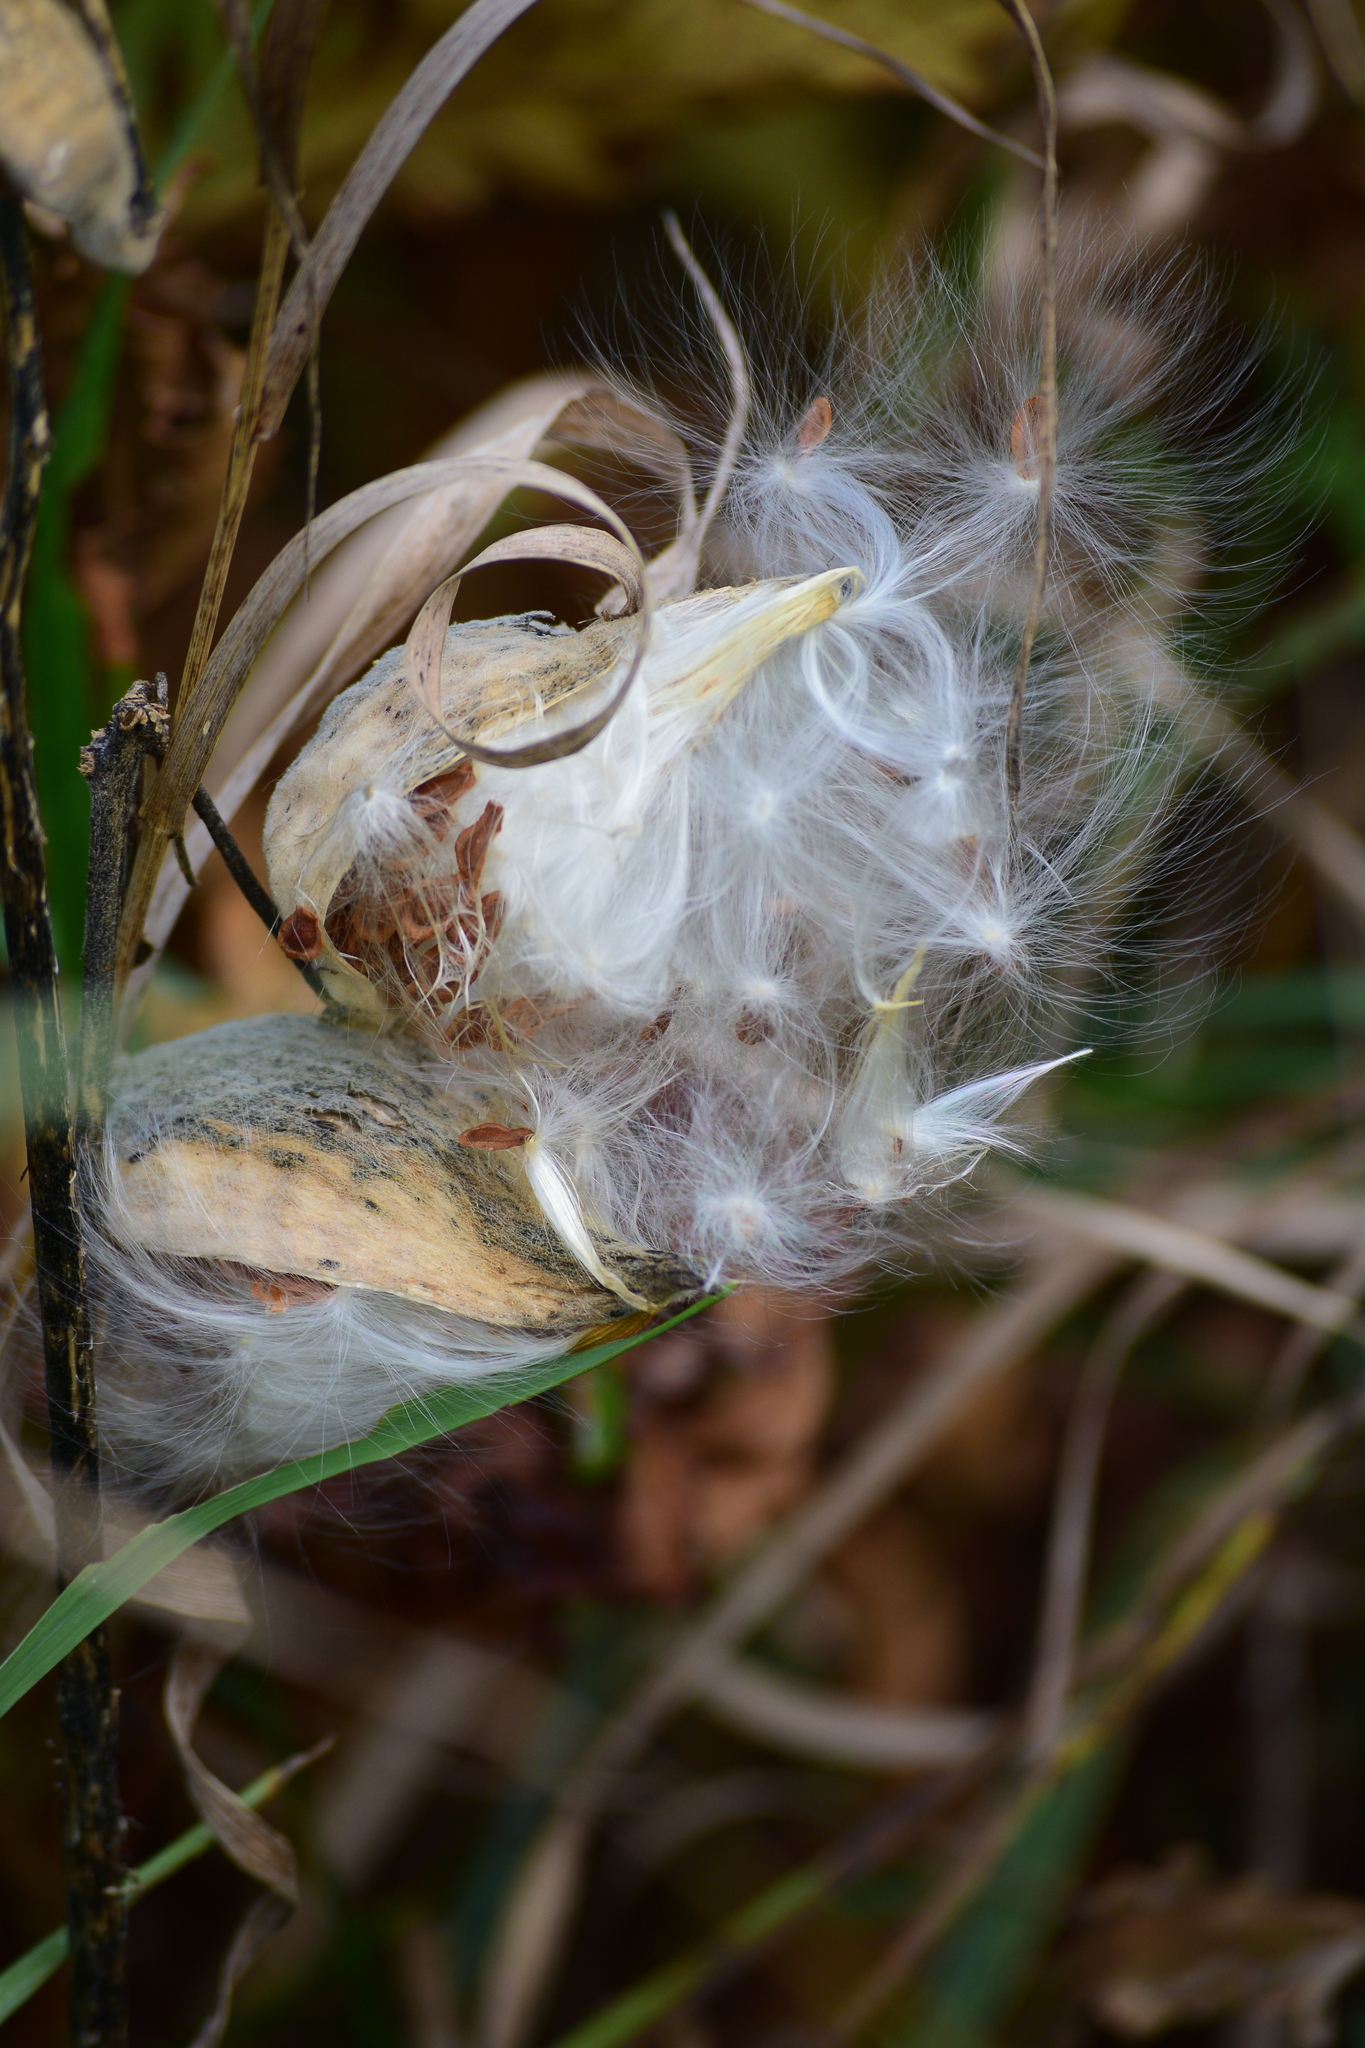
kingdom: Plantae
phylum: Tracheophyta
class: Magnoliopsida
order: Gentianales
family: Apocynaceae
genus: Asclepias
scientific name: Asclepias syriaca
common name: Common milkweed
